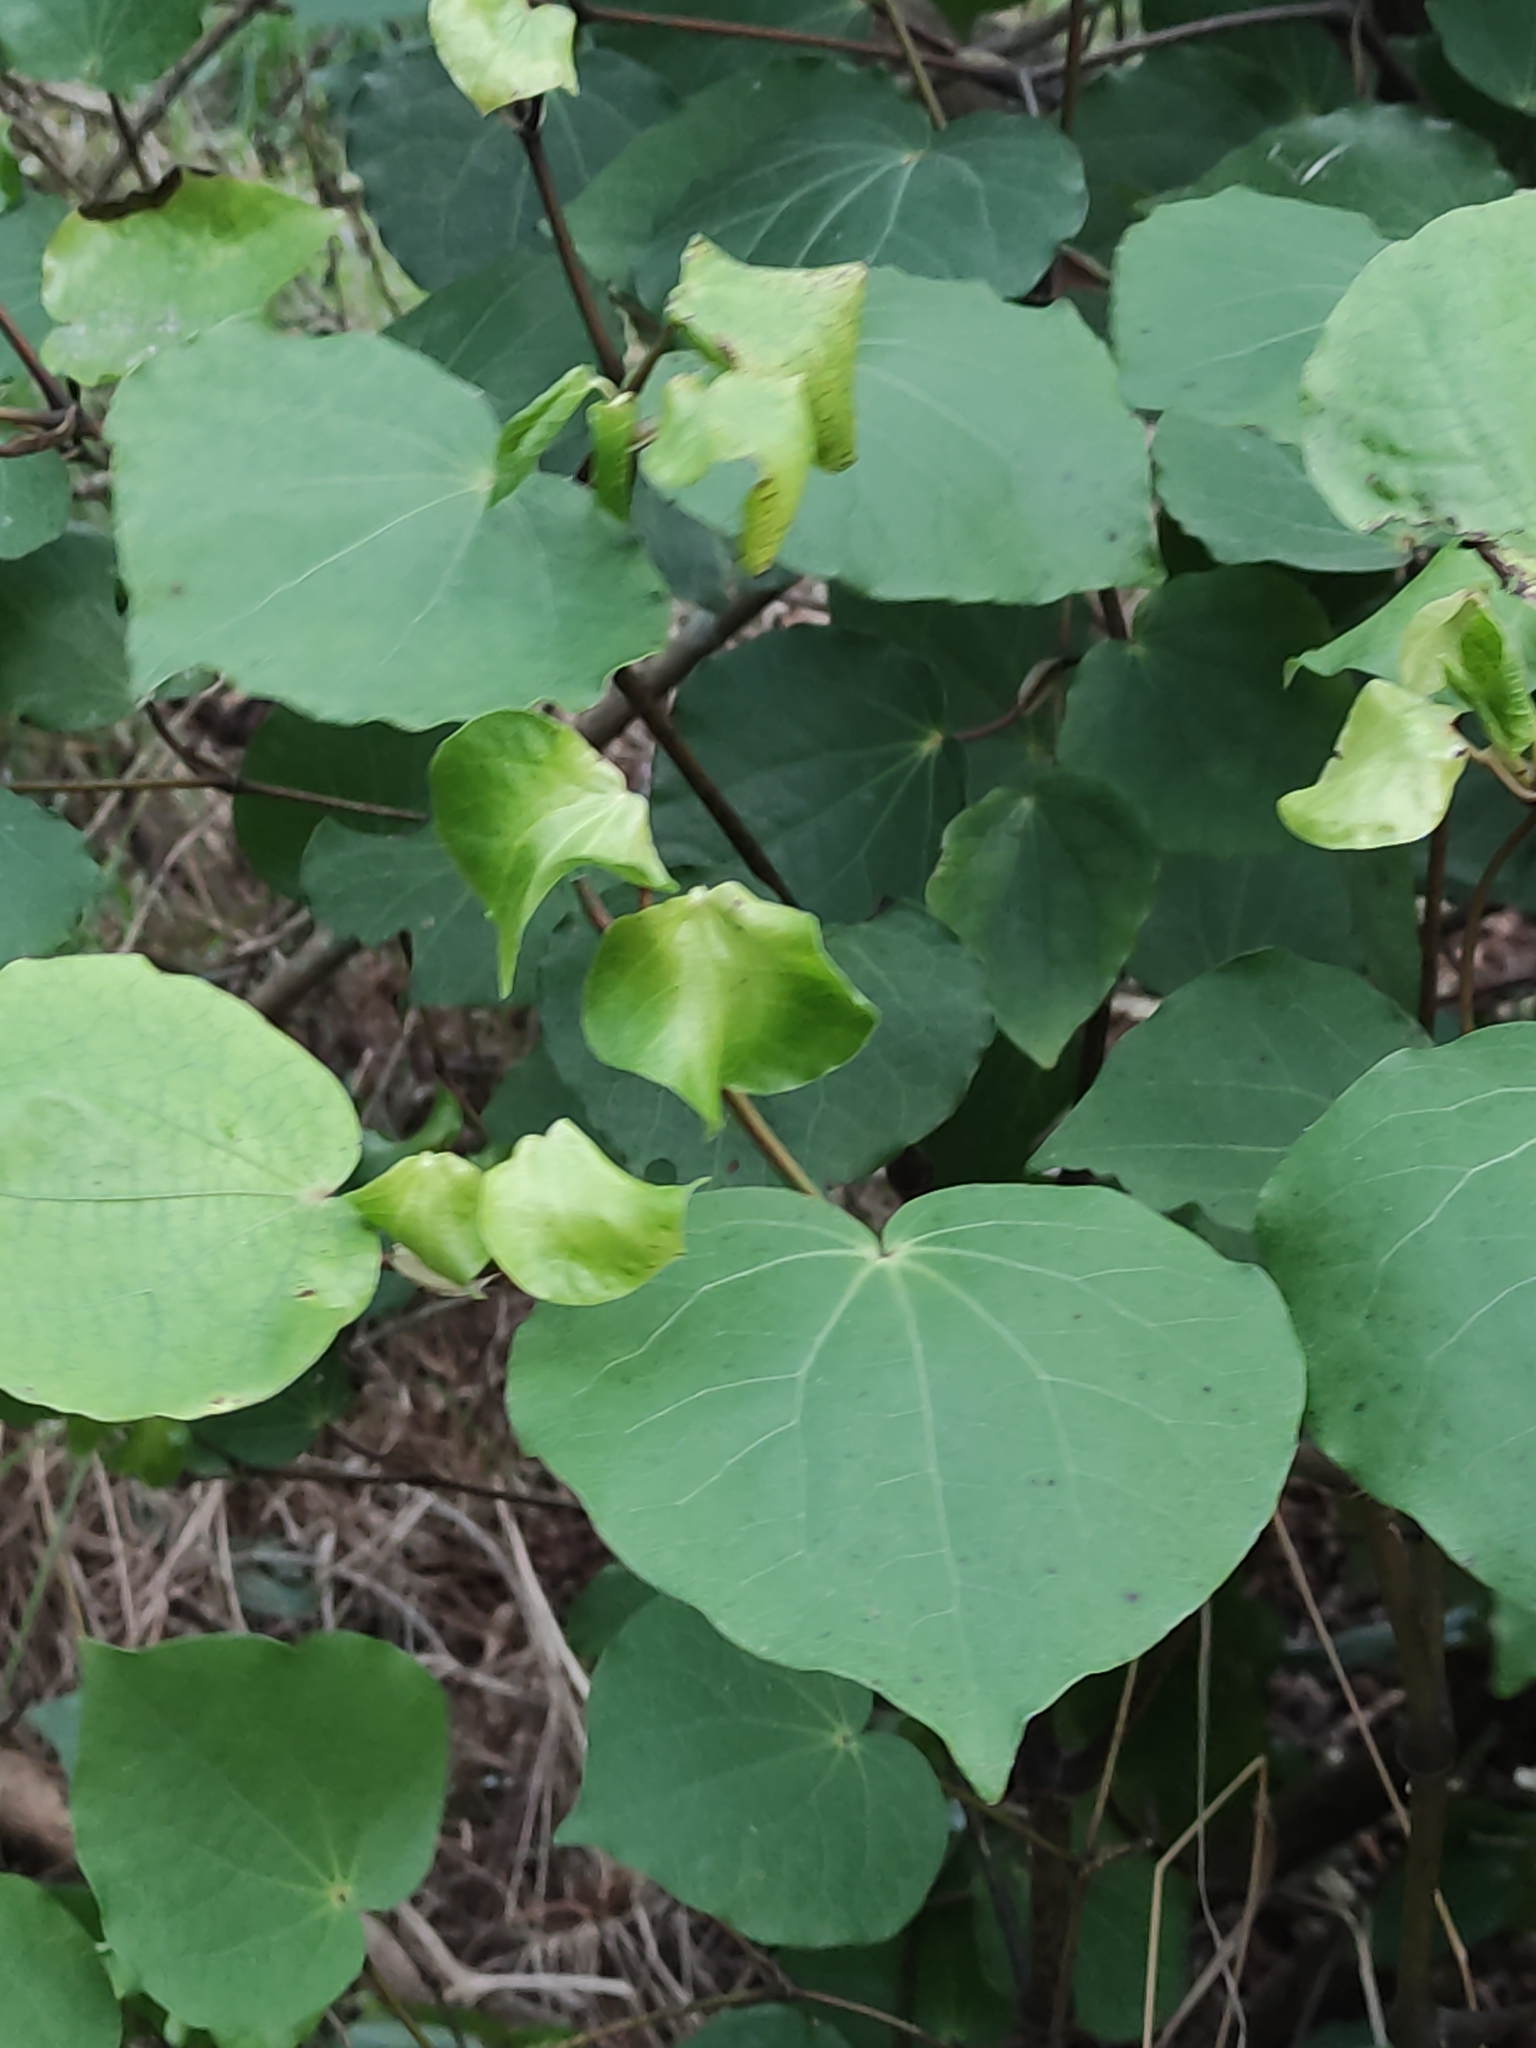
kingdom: Plantae
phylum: Tracheophyta
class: Magnoliopsida
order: Piperales
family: Piperaceae
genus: Macropiper
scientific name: Macropiper excelsum
